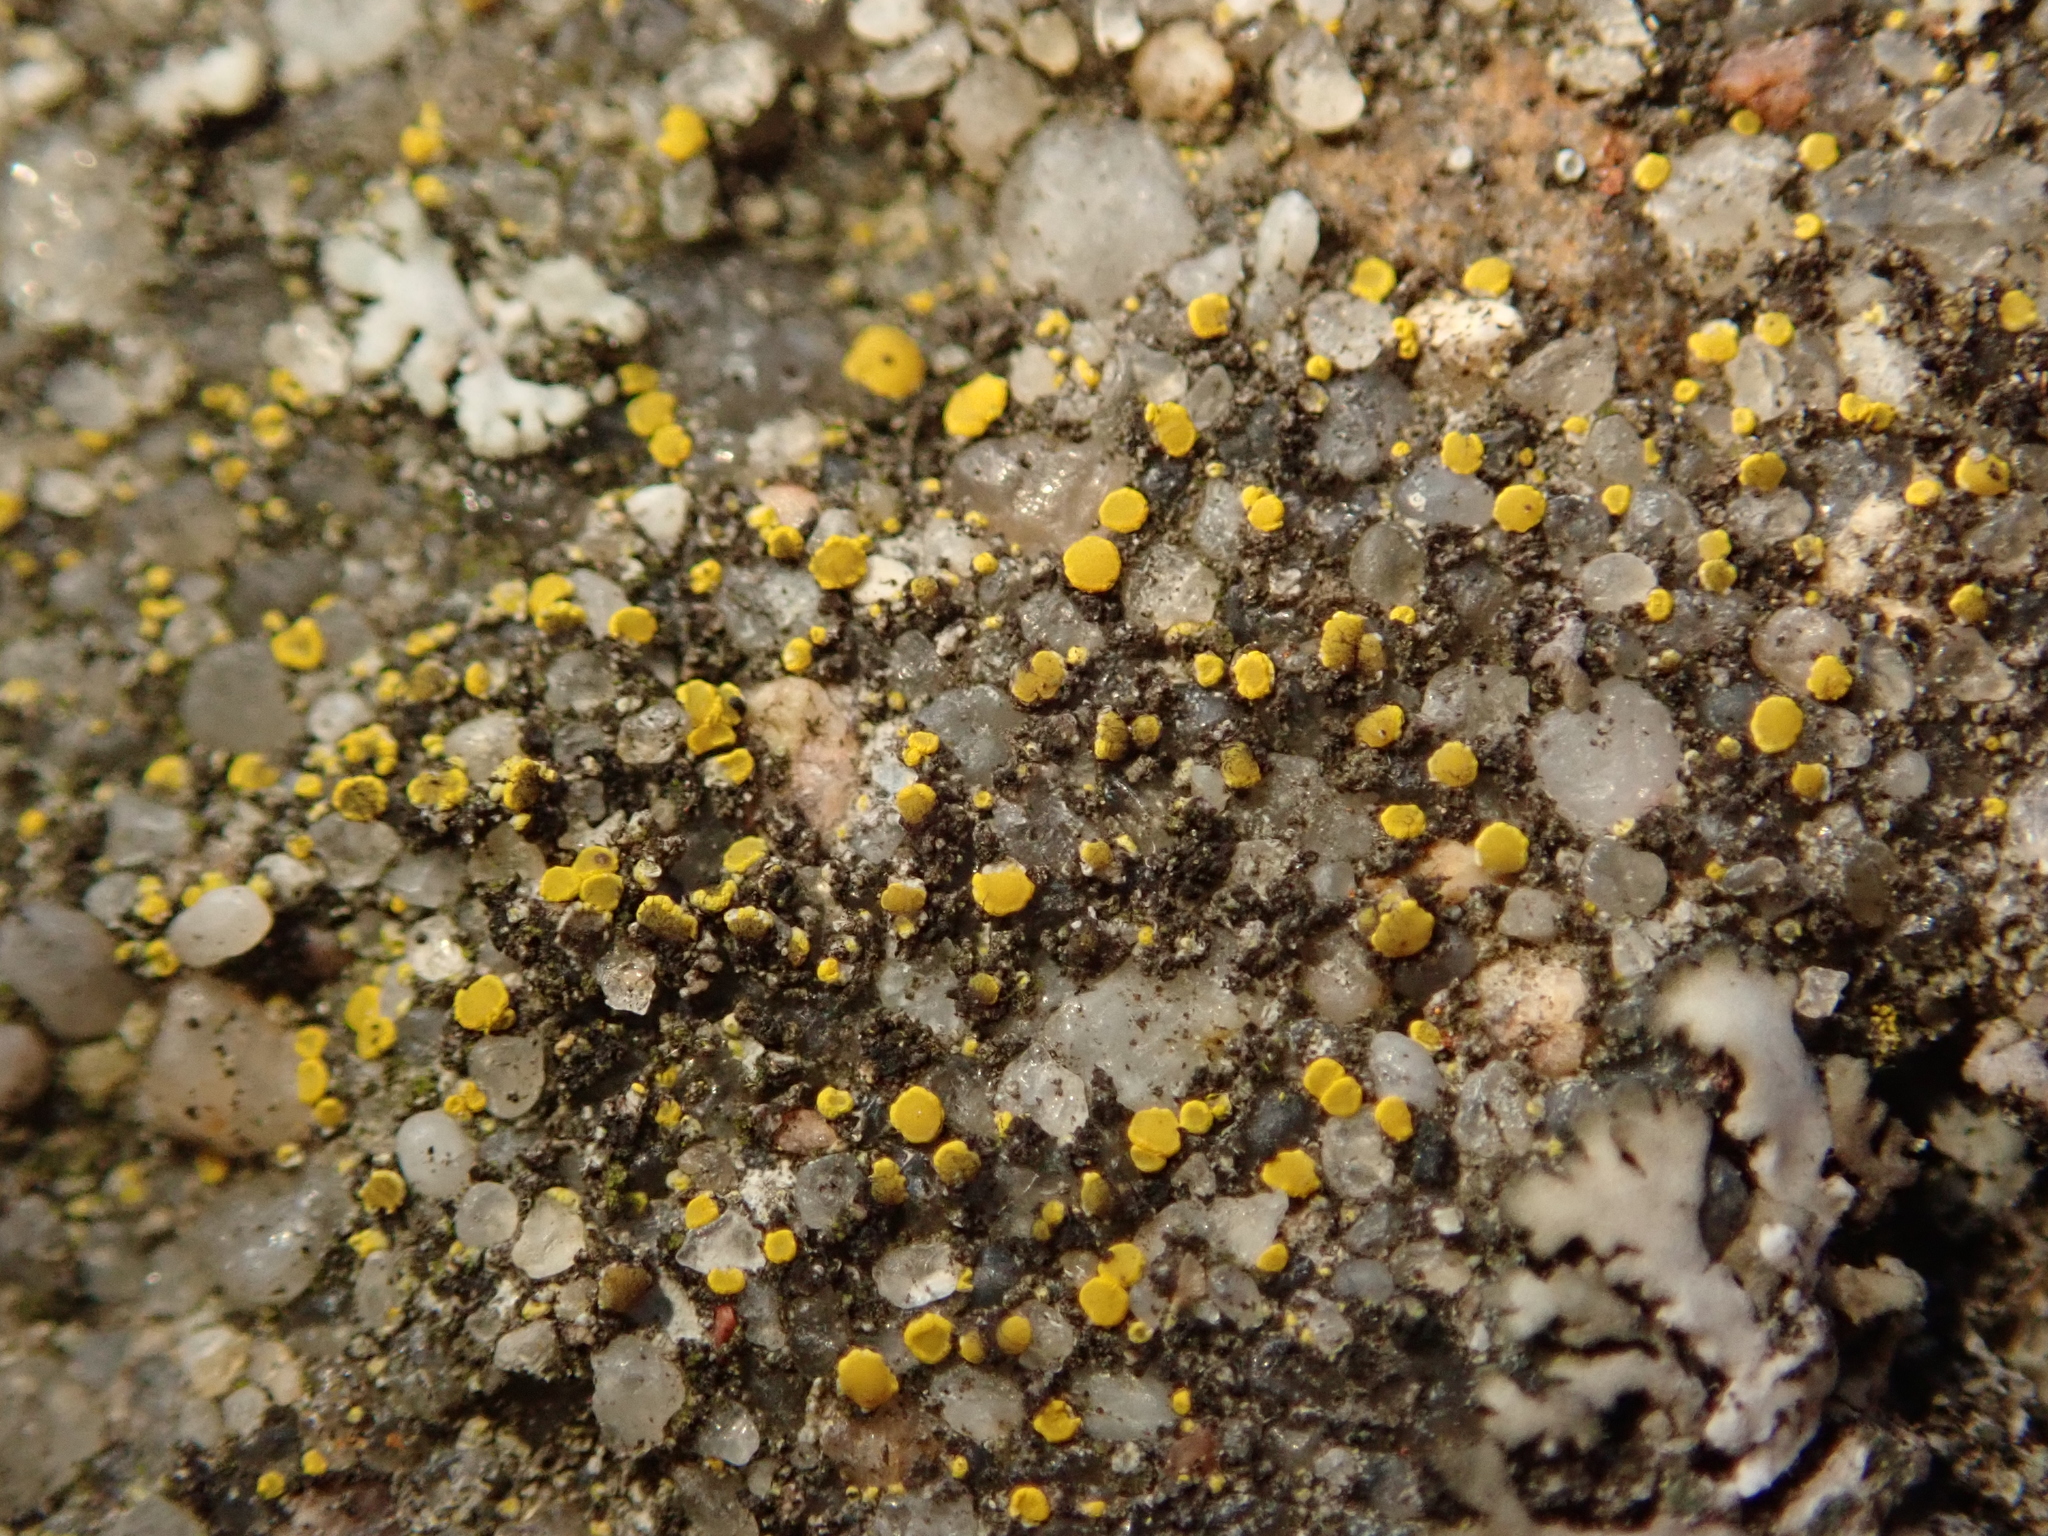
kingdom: Fungi
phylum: Ascomycota
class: Candelariomycetes
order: Candelariales
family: Candelariaceae
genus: Candelariella
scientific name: Candelariella aurella
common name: Hidden goldspeck lichen
